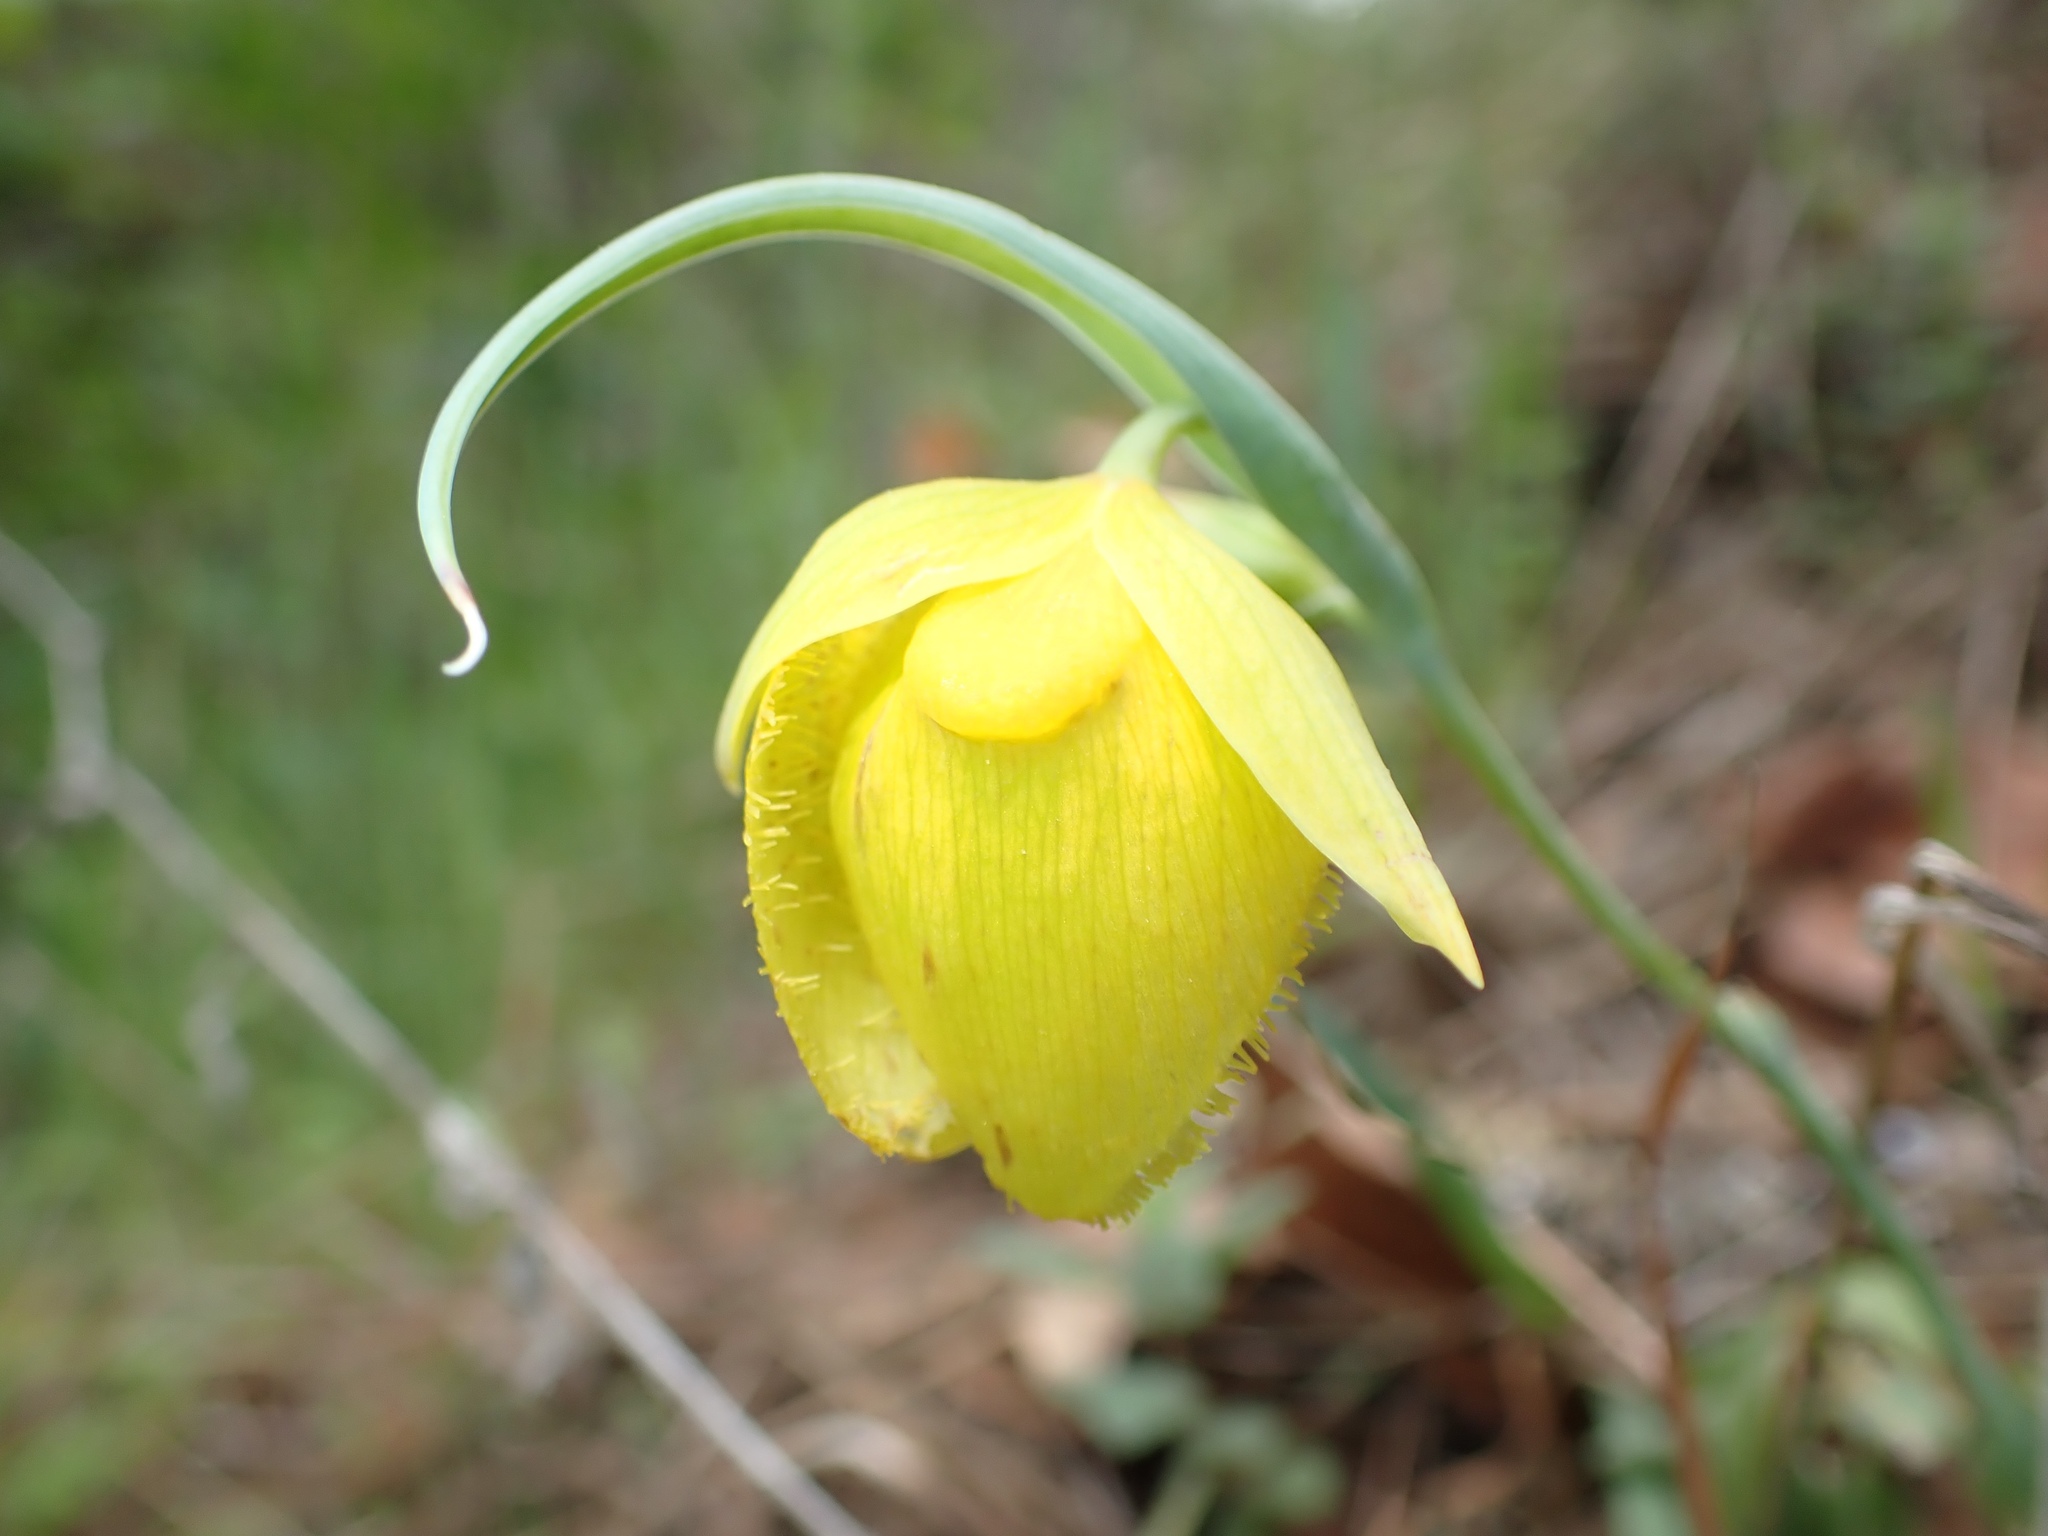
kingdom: Plantae
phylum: Tracheophyta
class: Liliopsida
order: Liliales
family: Liliaceae
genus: Calochortus
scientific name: Calochortus pulchellus
